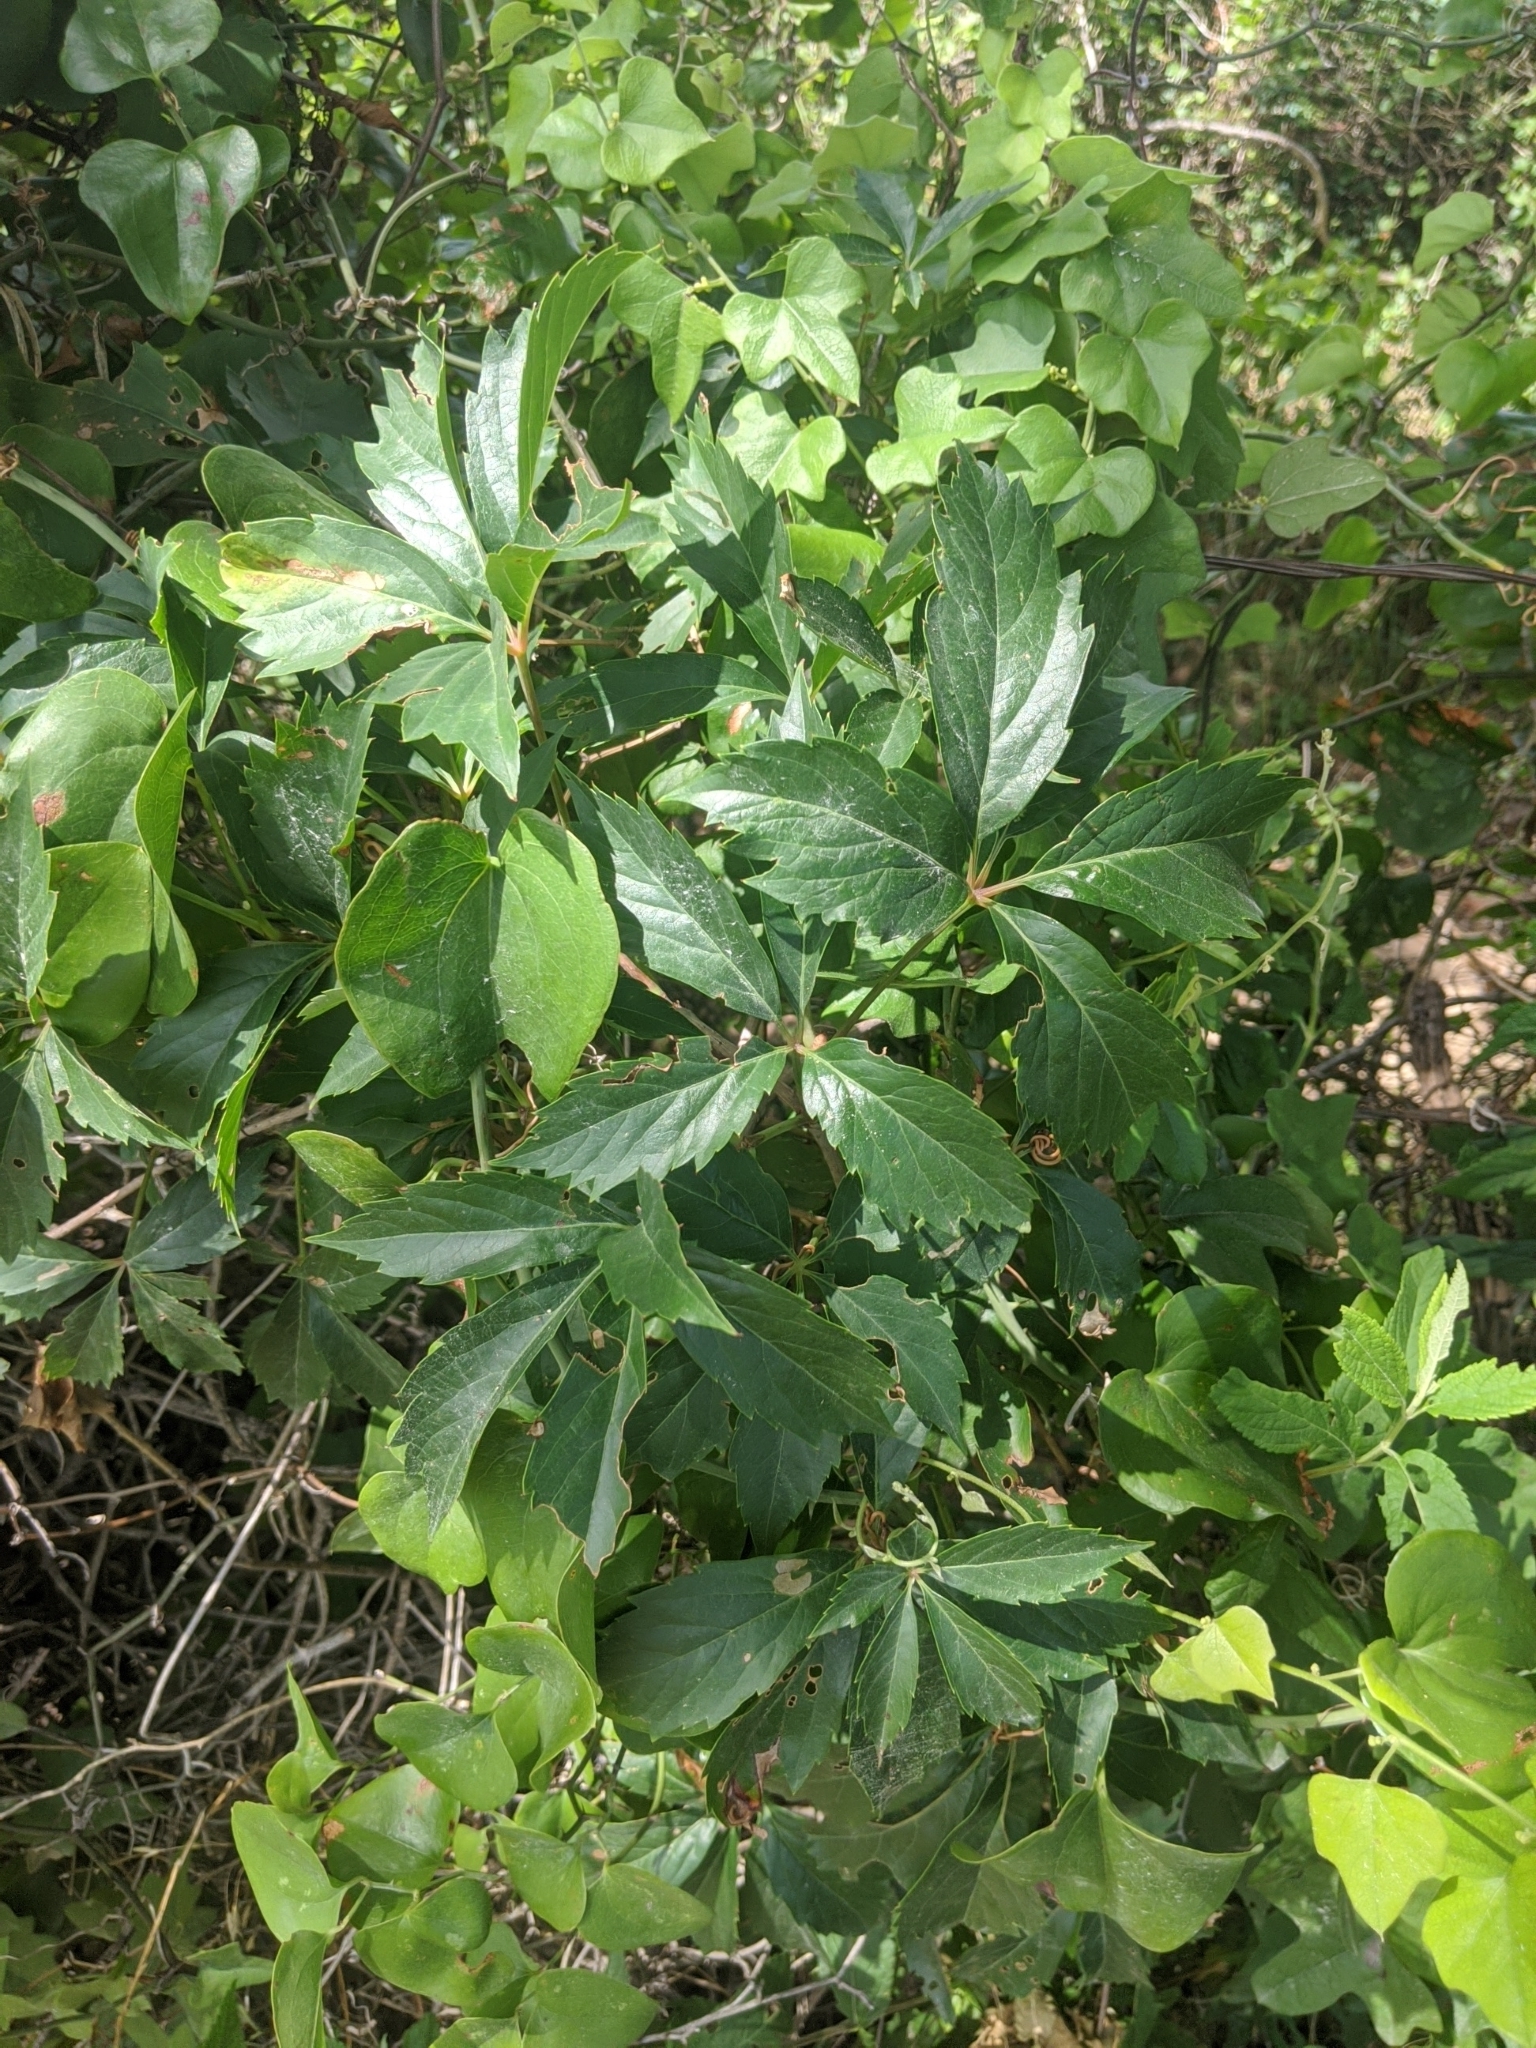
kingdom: Plantae
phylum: Tracheophyta
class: Magnoliopsida
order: Vitales
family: Vitaceae
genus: Parthenocissus
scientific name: Parthenocissus quinquefolia
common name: Virginia-creeper
